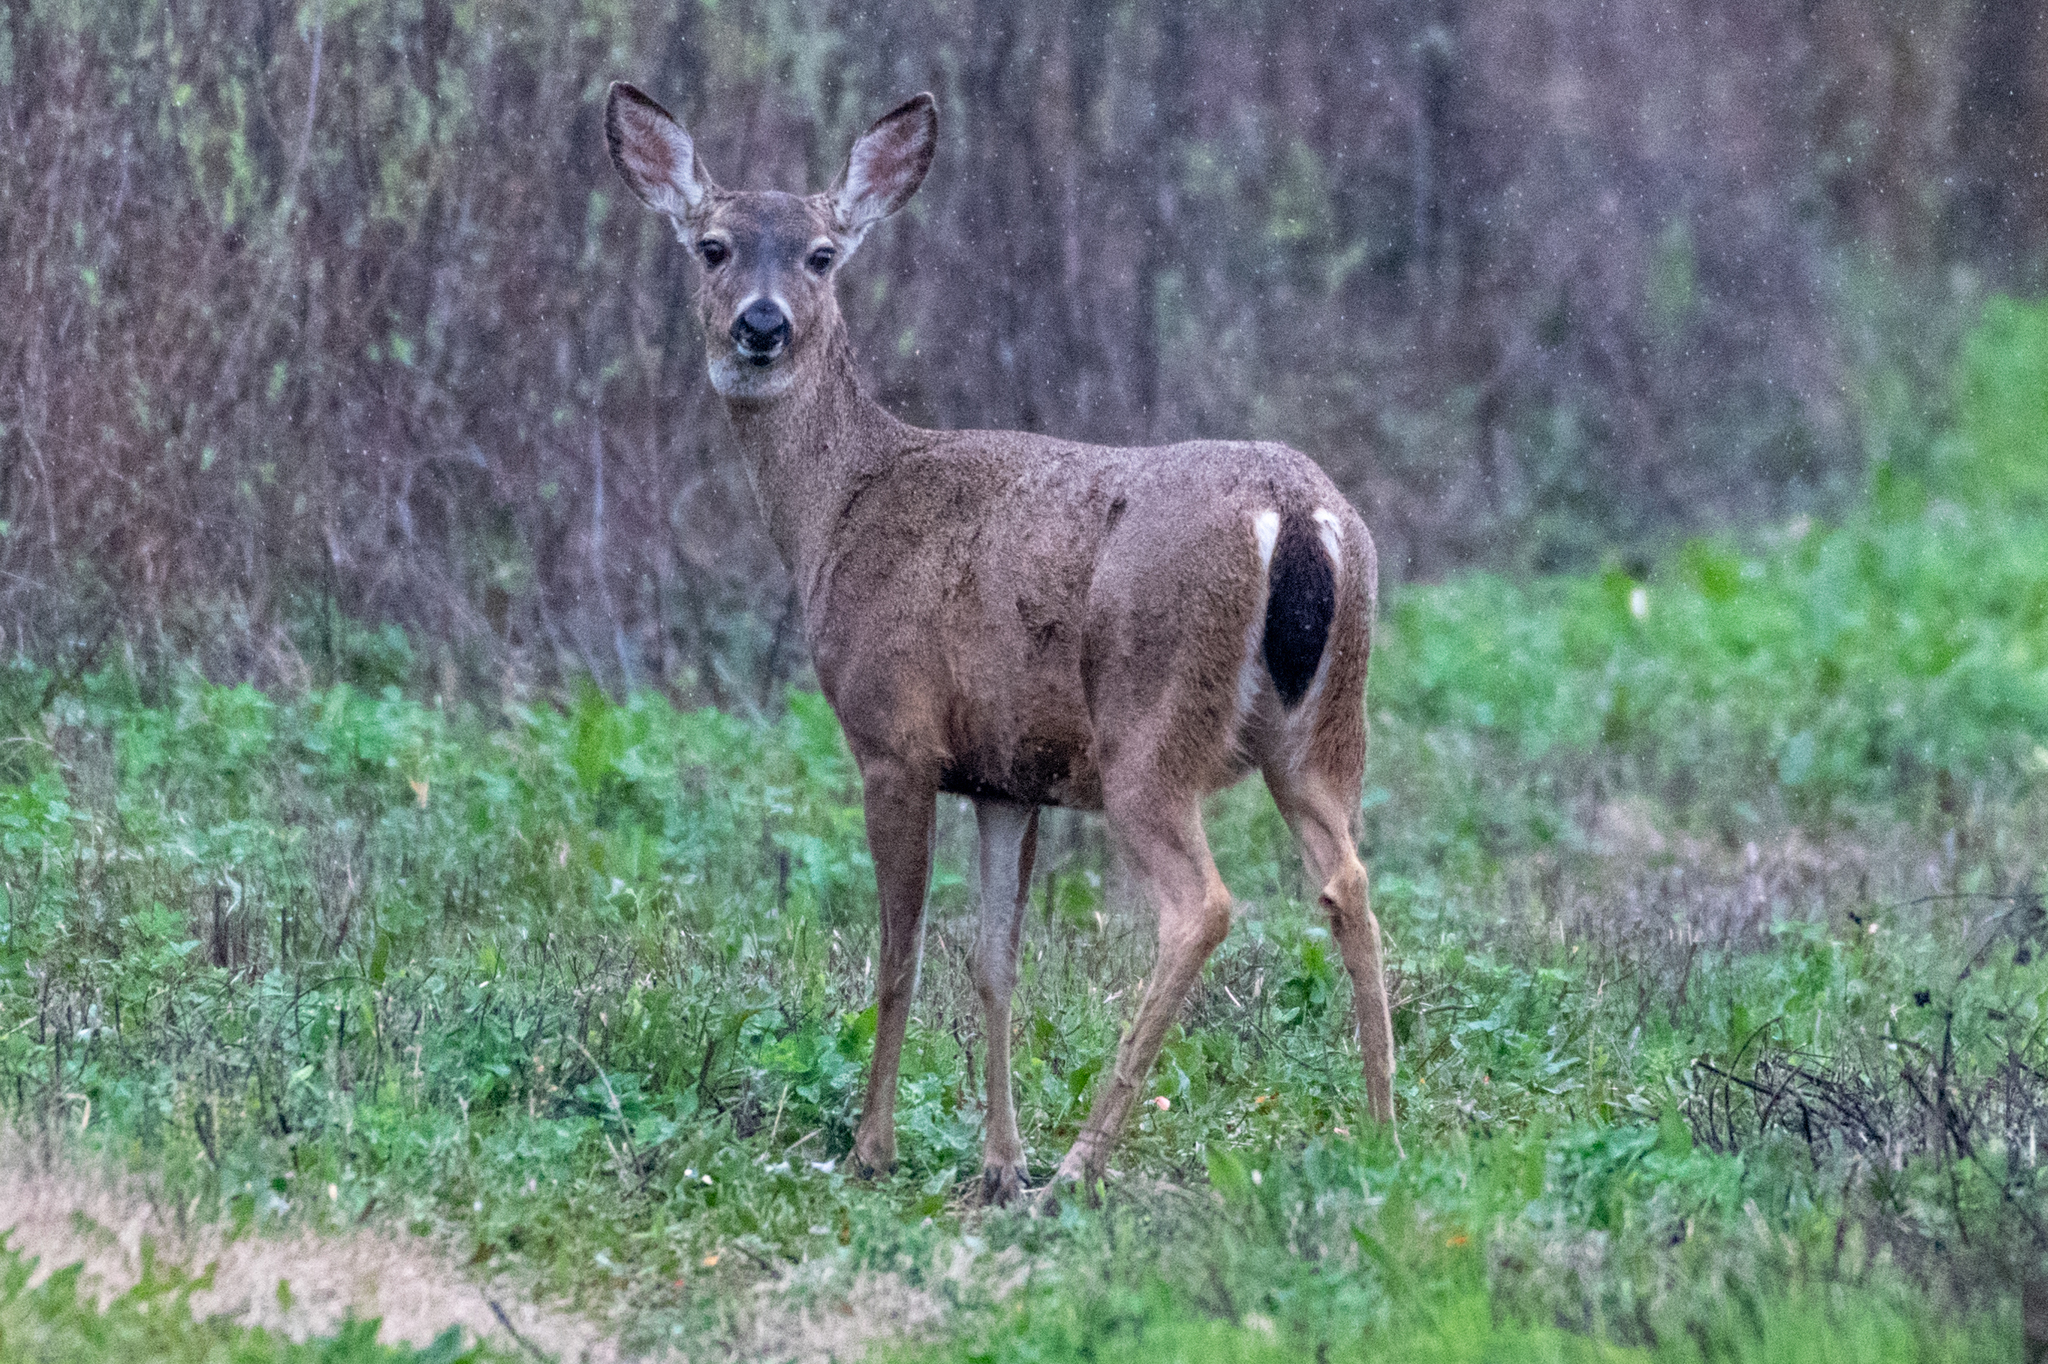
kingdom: Animalia
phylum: Chordata
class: Mammalia
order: Artiodactyla
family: Cervidae
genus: Odocoileus
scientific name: Odocoileus hemionus
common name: Mule deer
